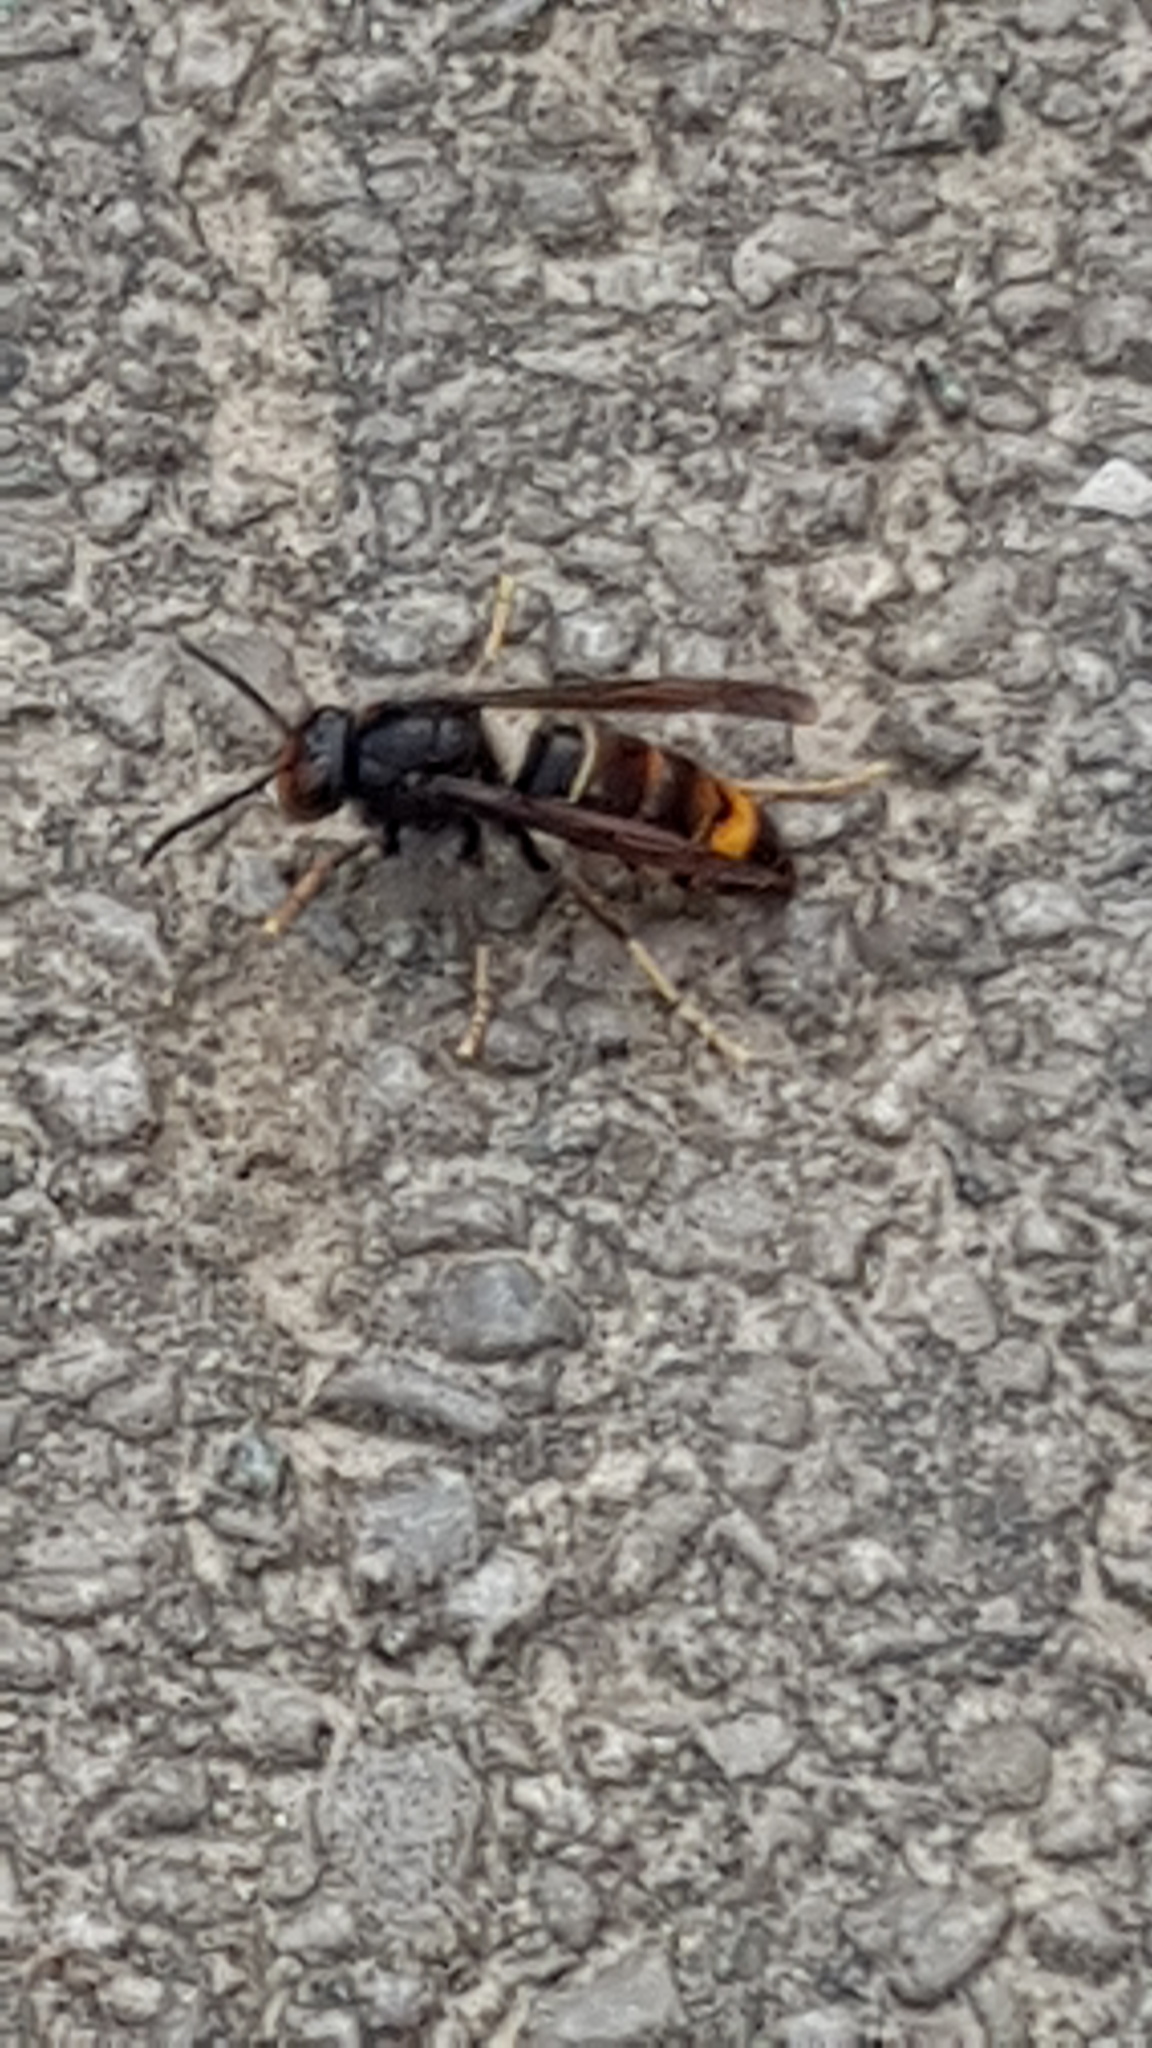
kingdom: Animalia
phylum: Arthropoda
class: Insecta
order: Hymenoptera
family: Vespidae
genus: Vespa
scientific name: Vespa velutina
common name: Asian hornet
